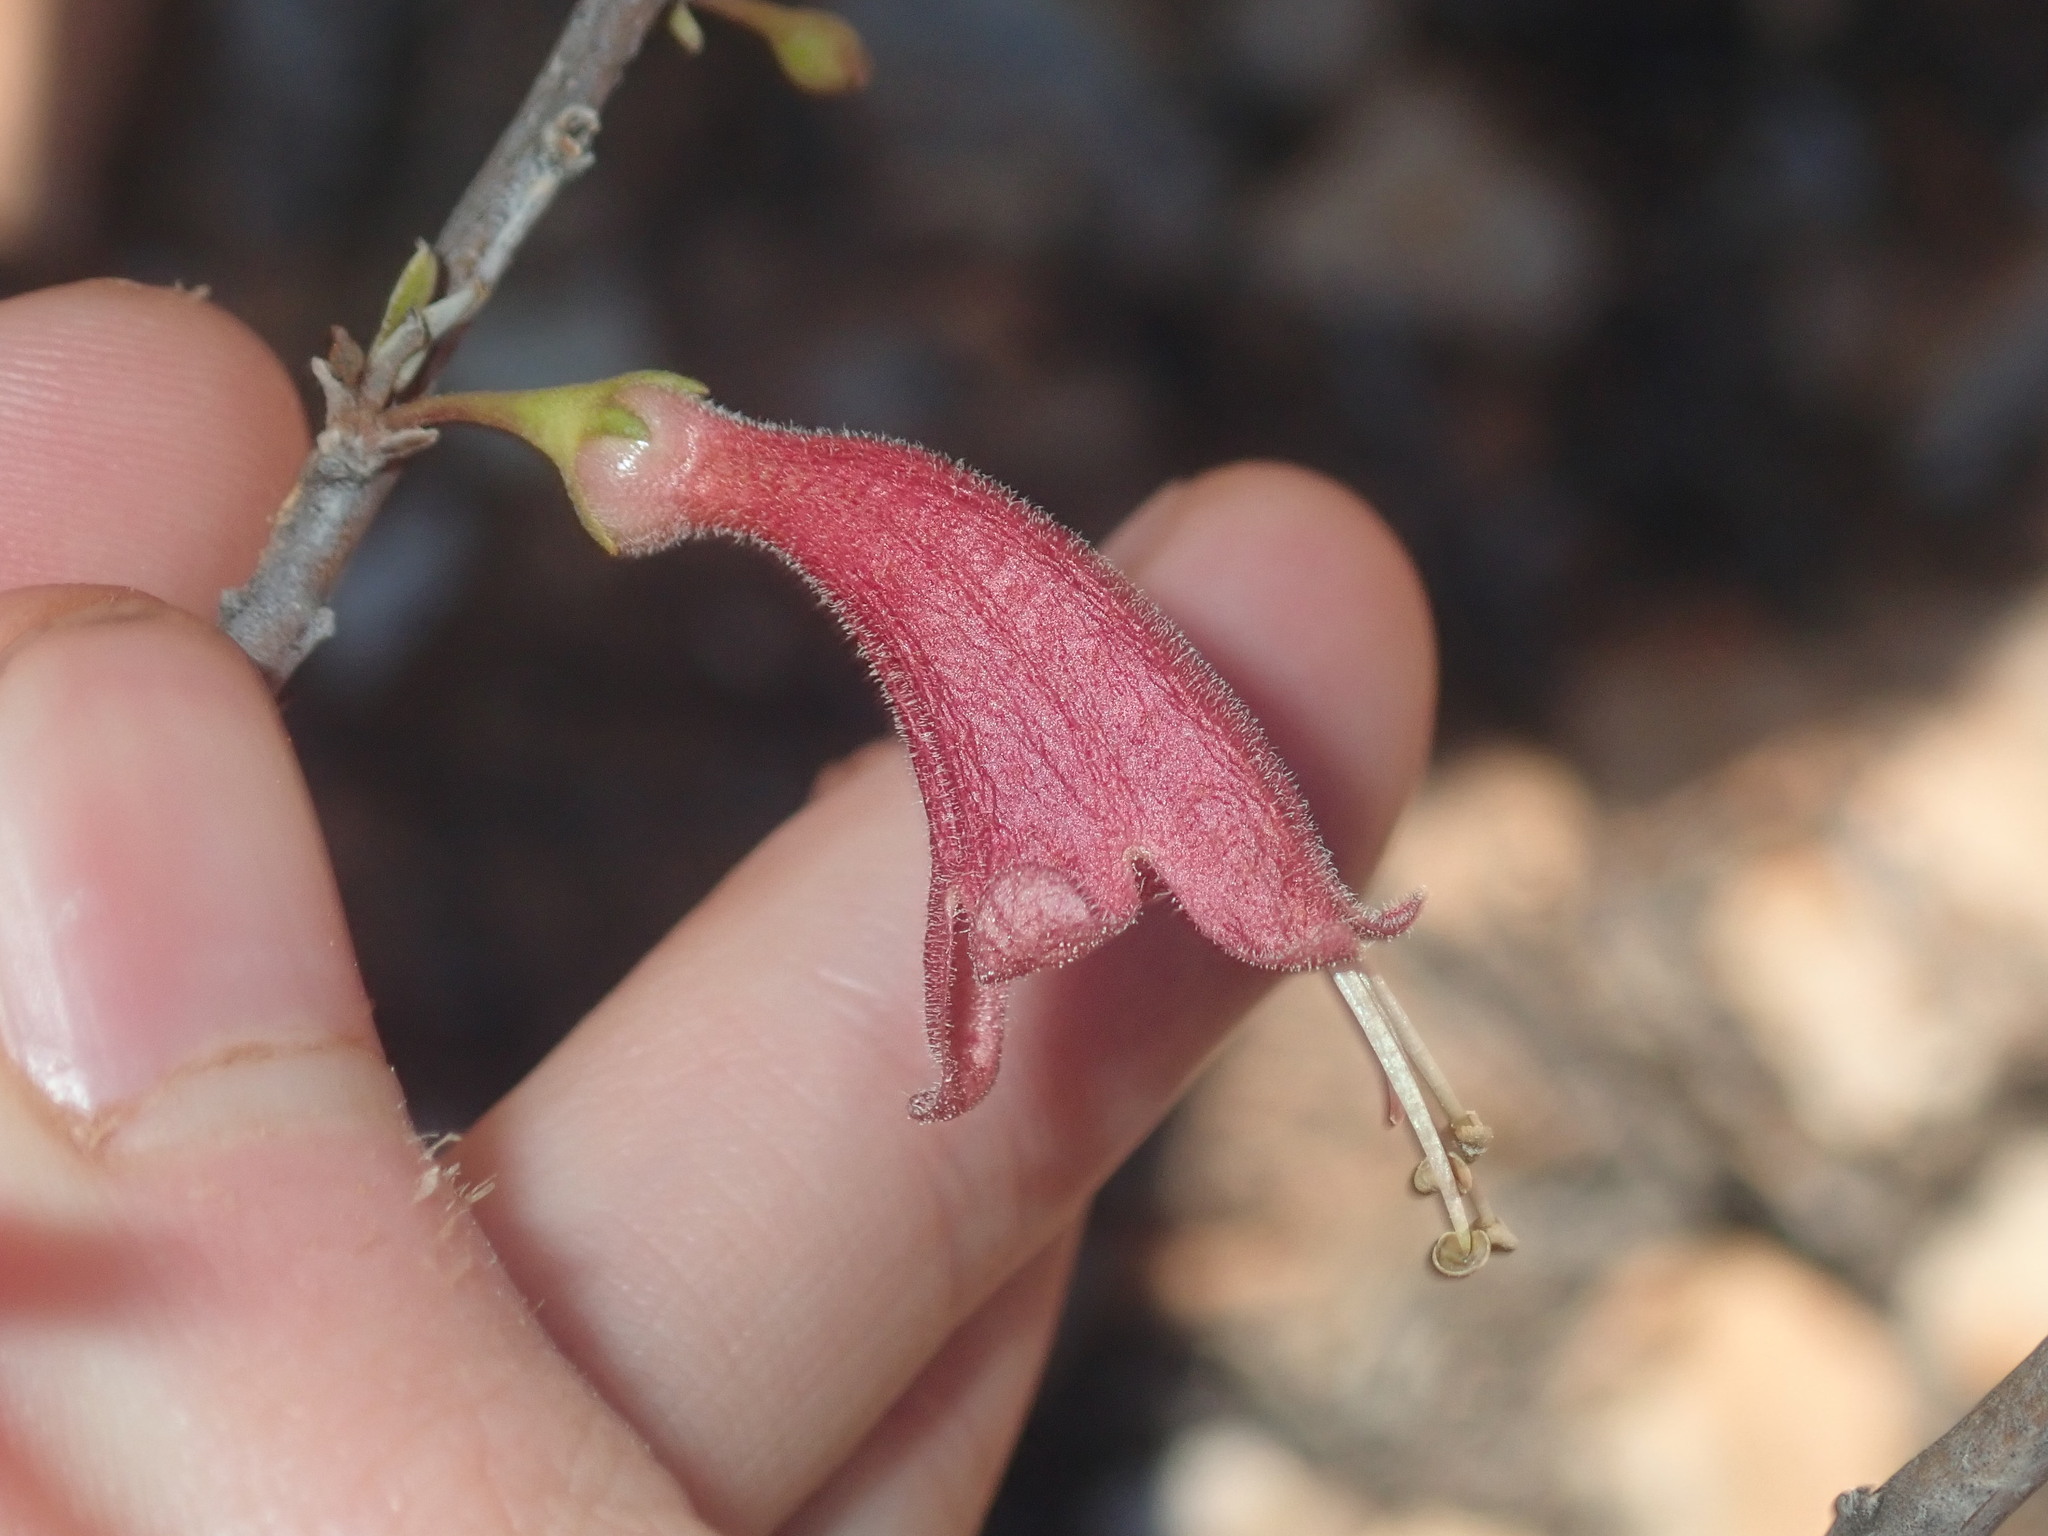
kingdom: Plantae
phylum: Tracheophyta
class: Magnoliopsida
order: Lamiales
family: Scrophulariaceae
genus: Eremophila
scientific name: Eremophila longifolia
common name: Longleaf emubush
